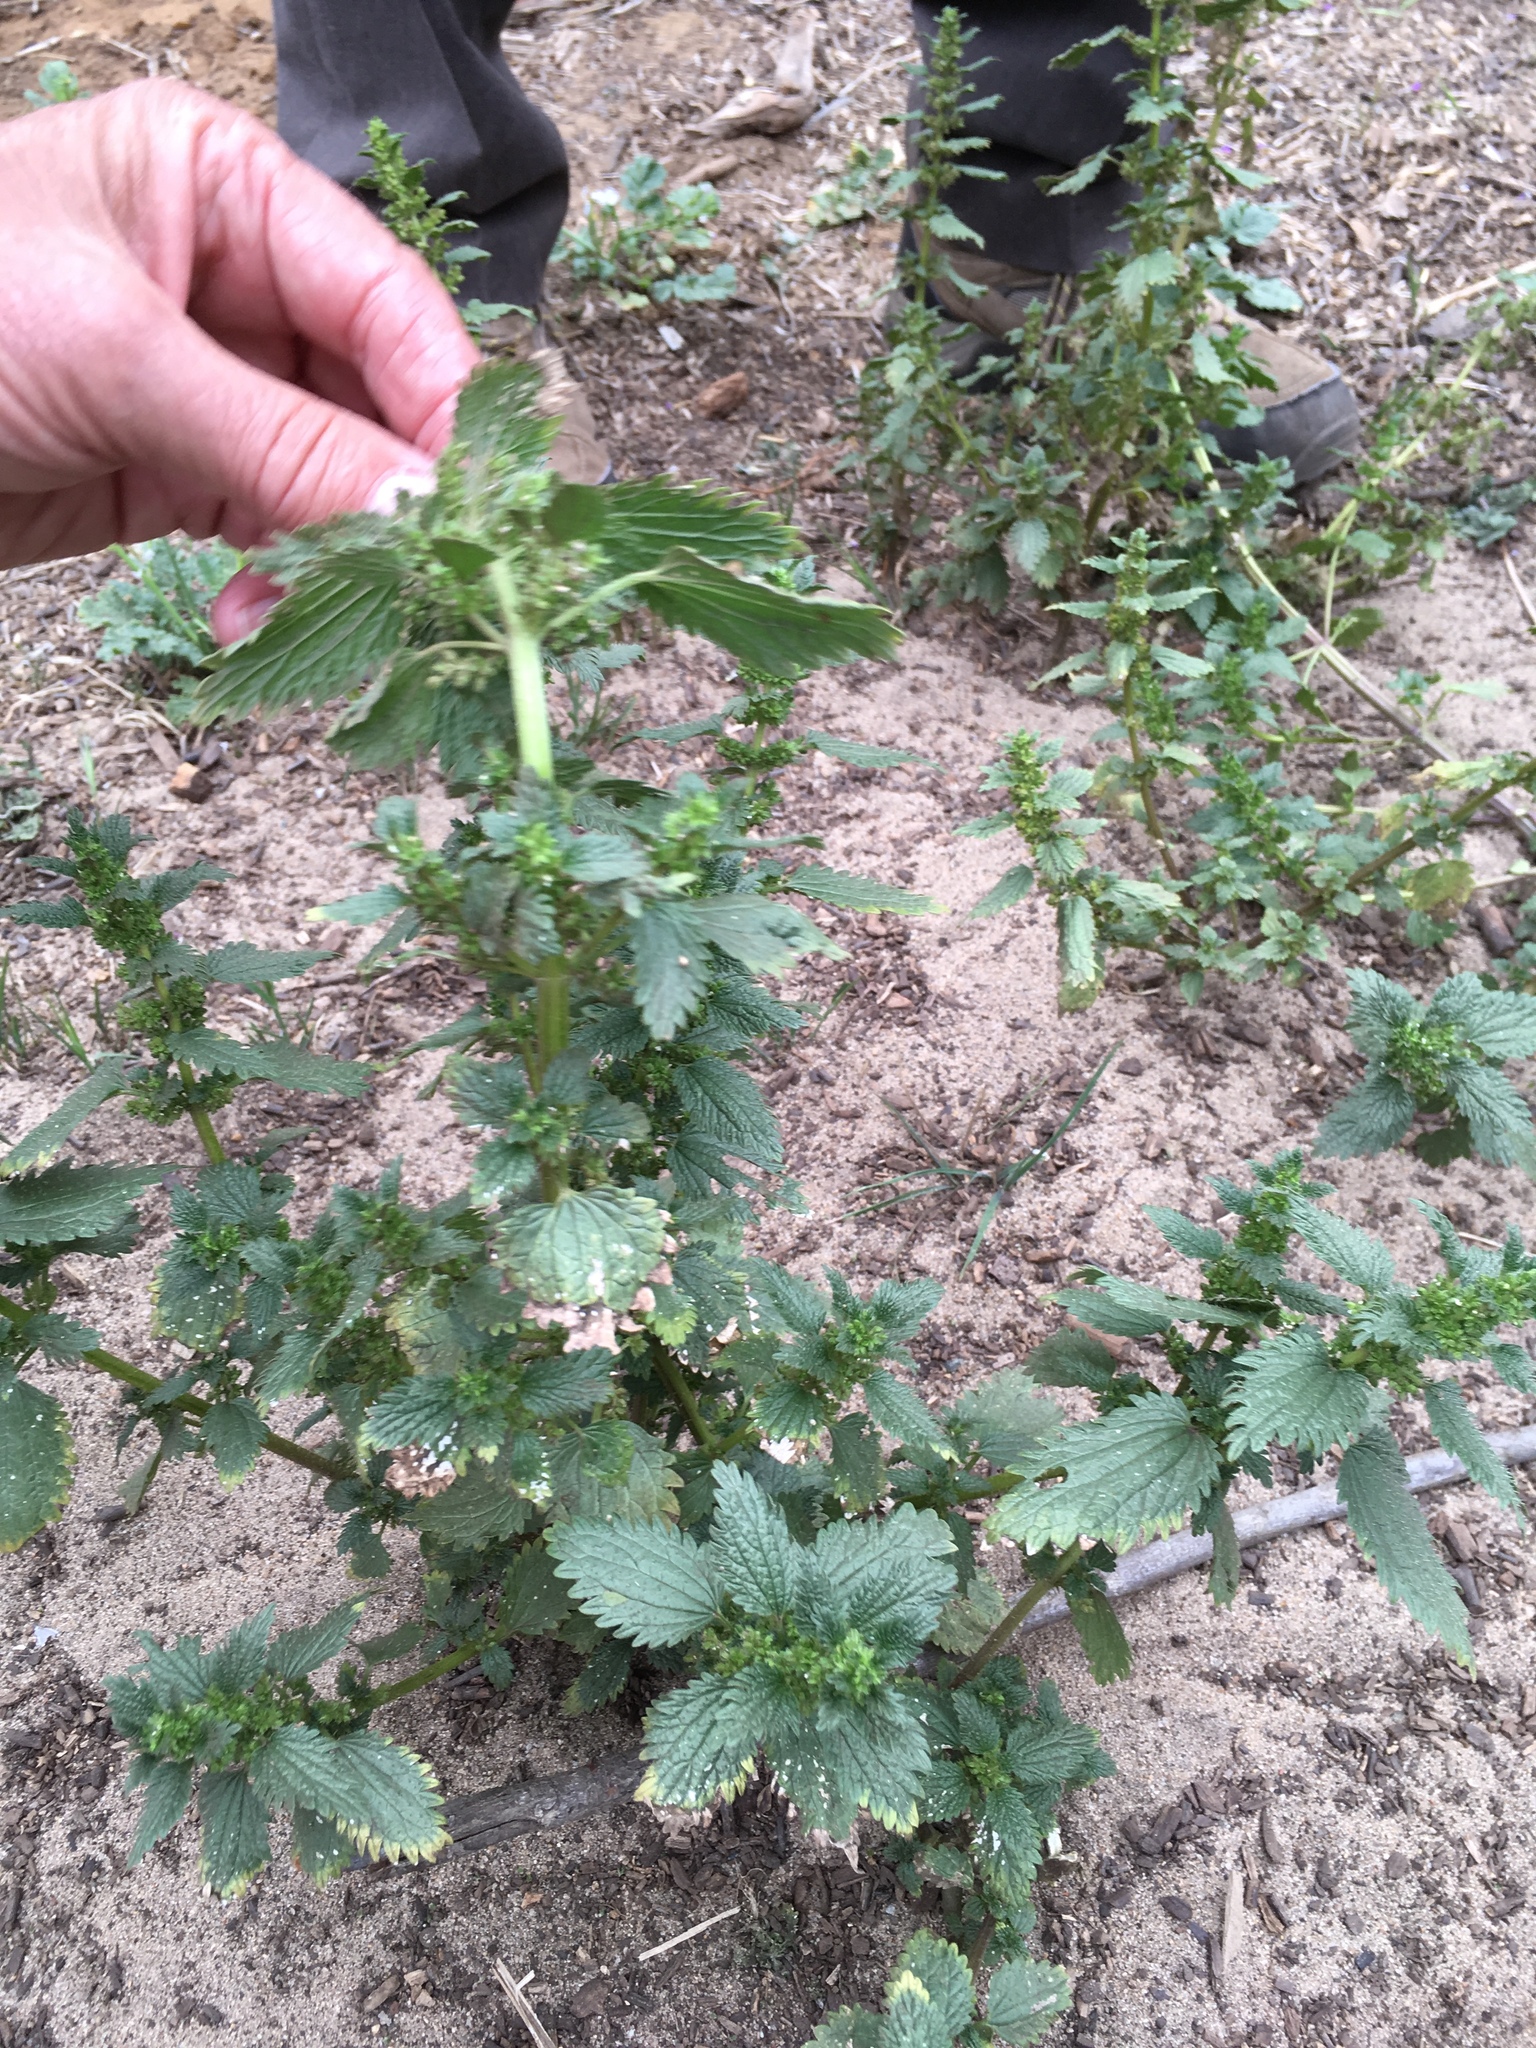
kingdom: Plantae
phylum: Tracheophyta
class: Magnoliopsida
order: Rosales
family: Urticaceae
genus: Urtica
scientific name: Urtica urens
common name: Dwarf nettle
